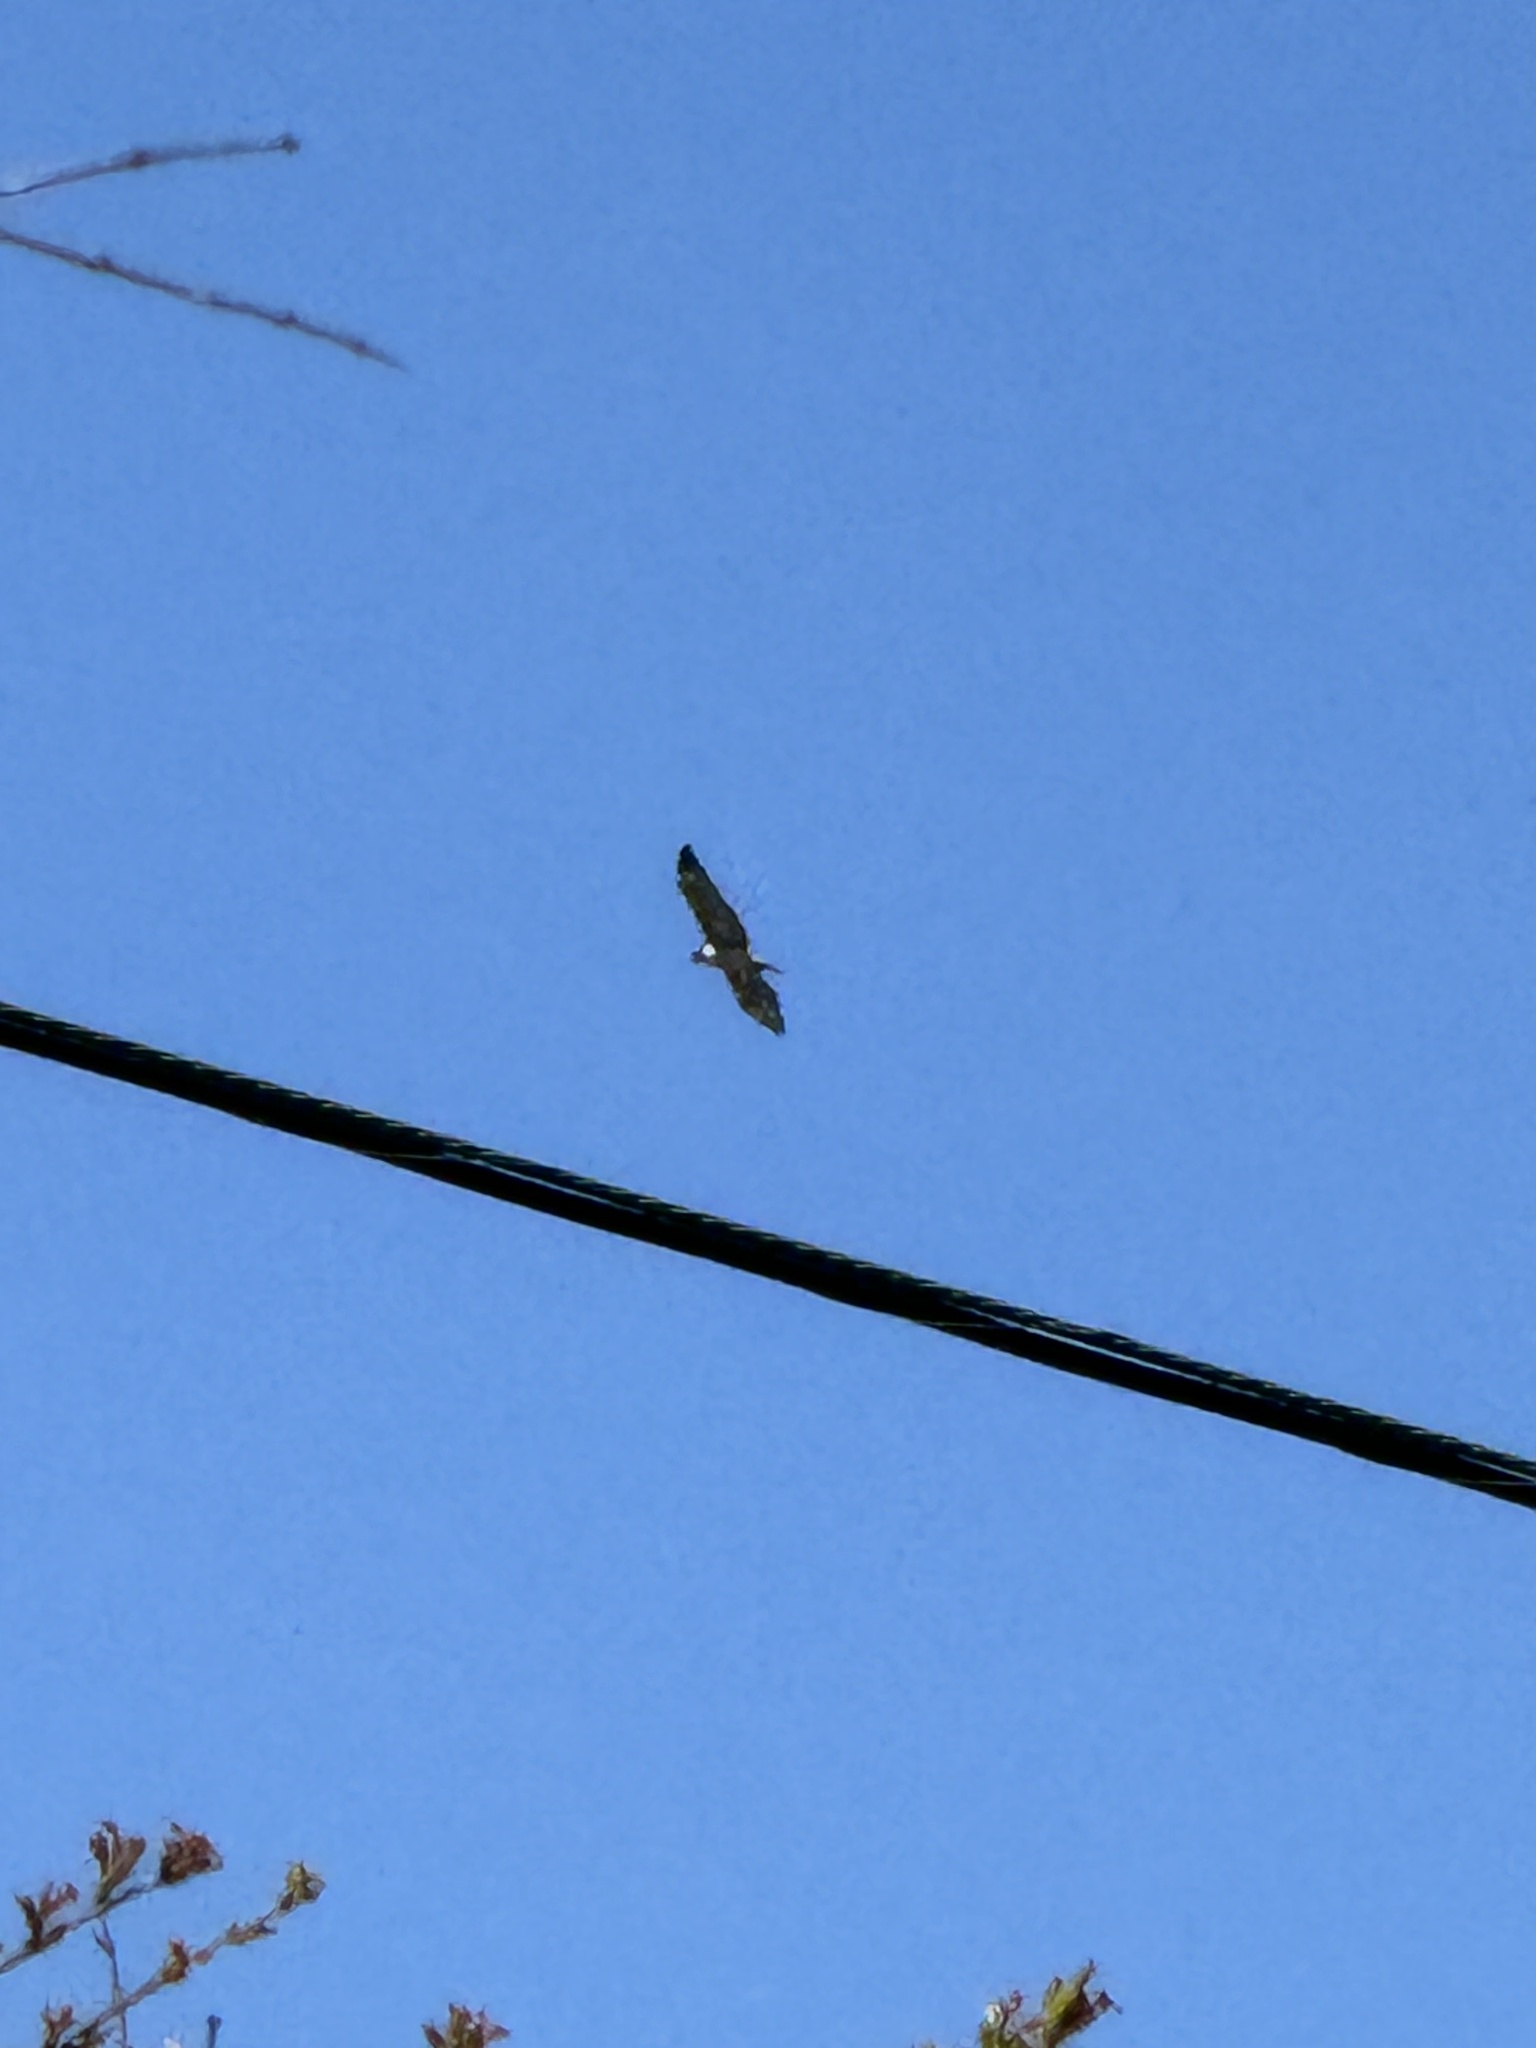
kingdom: Animalia
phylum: Chordata
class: Aves
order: Accipitriformes
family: Accipitridae
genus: Buteo
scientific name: Buteo jamaicensis
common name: Red-tailed hawk
